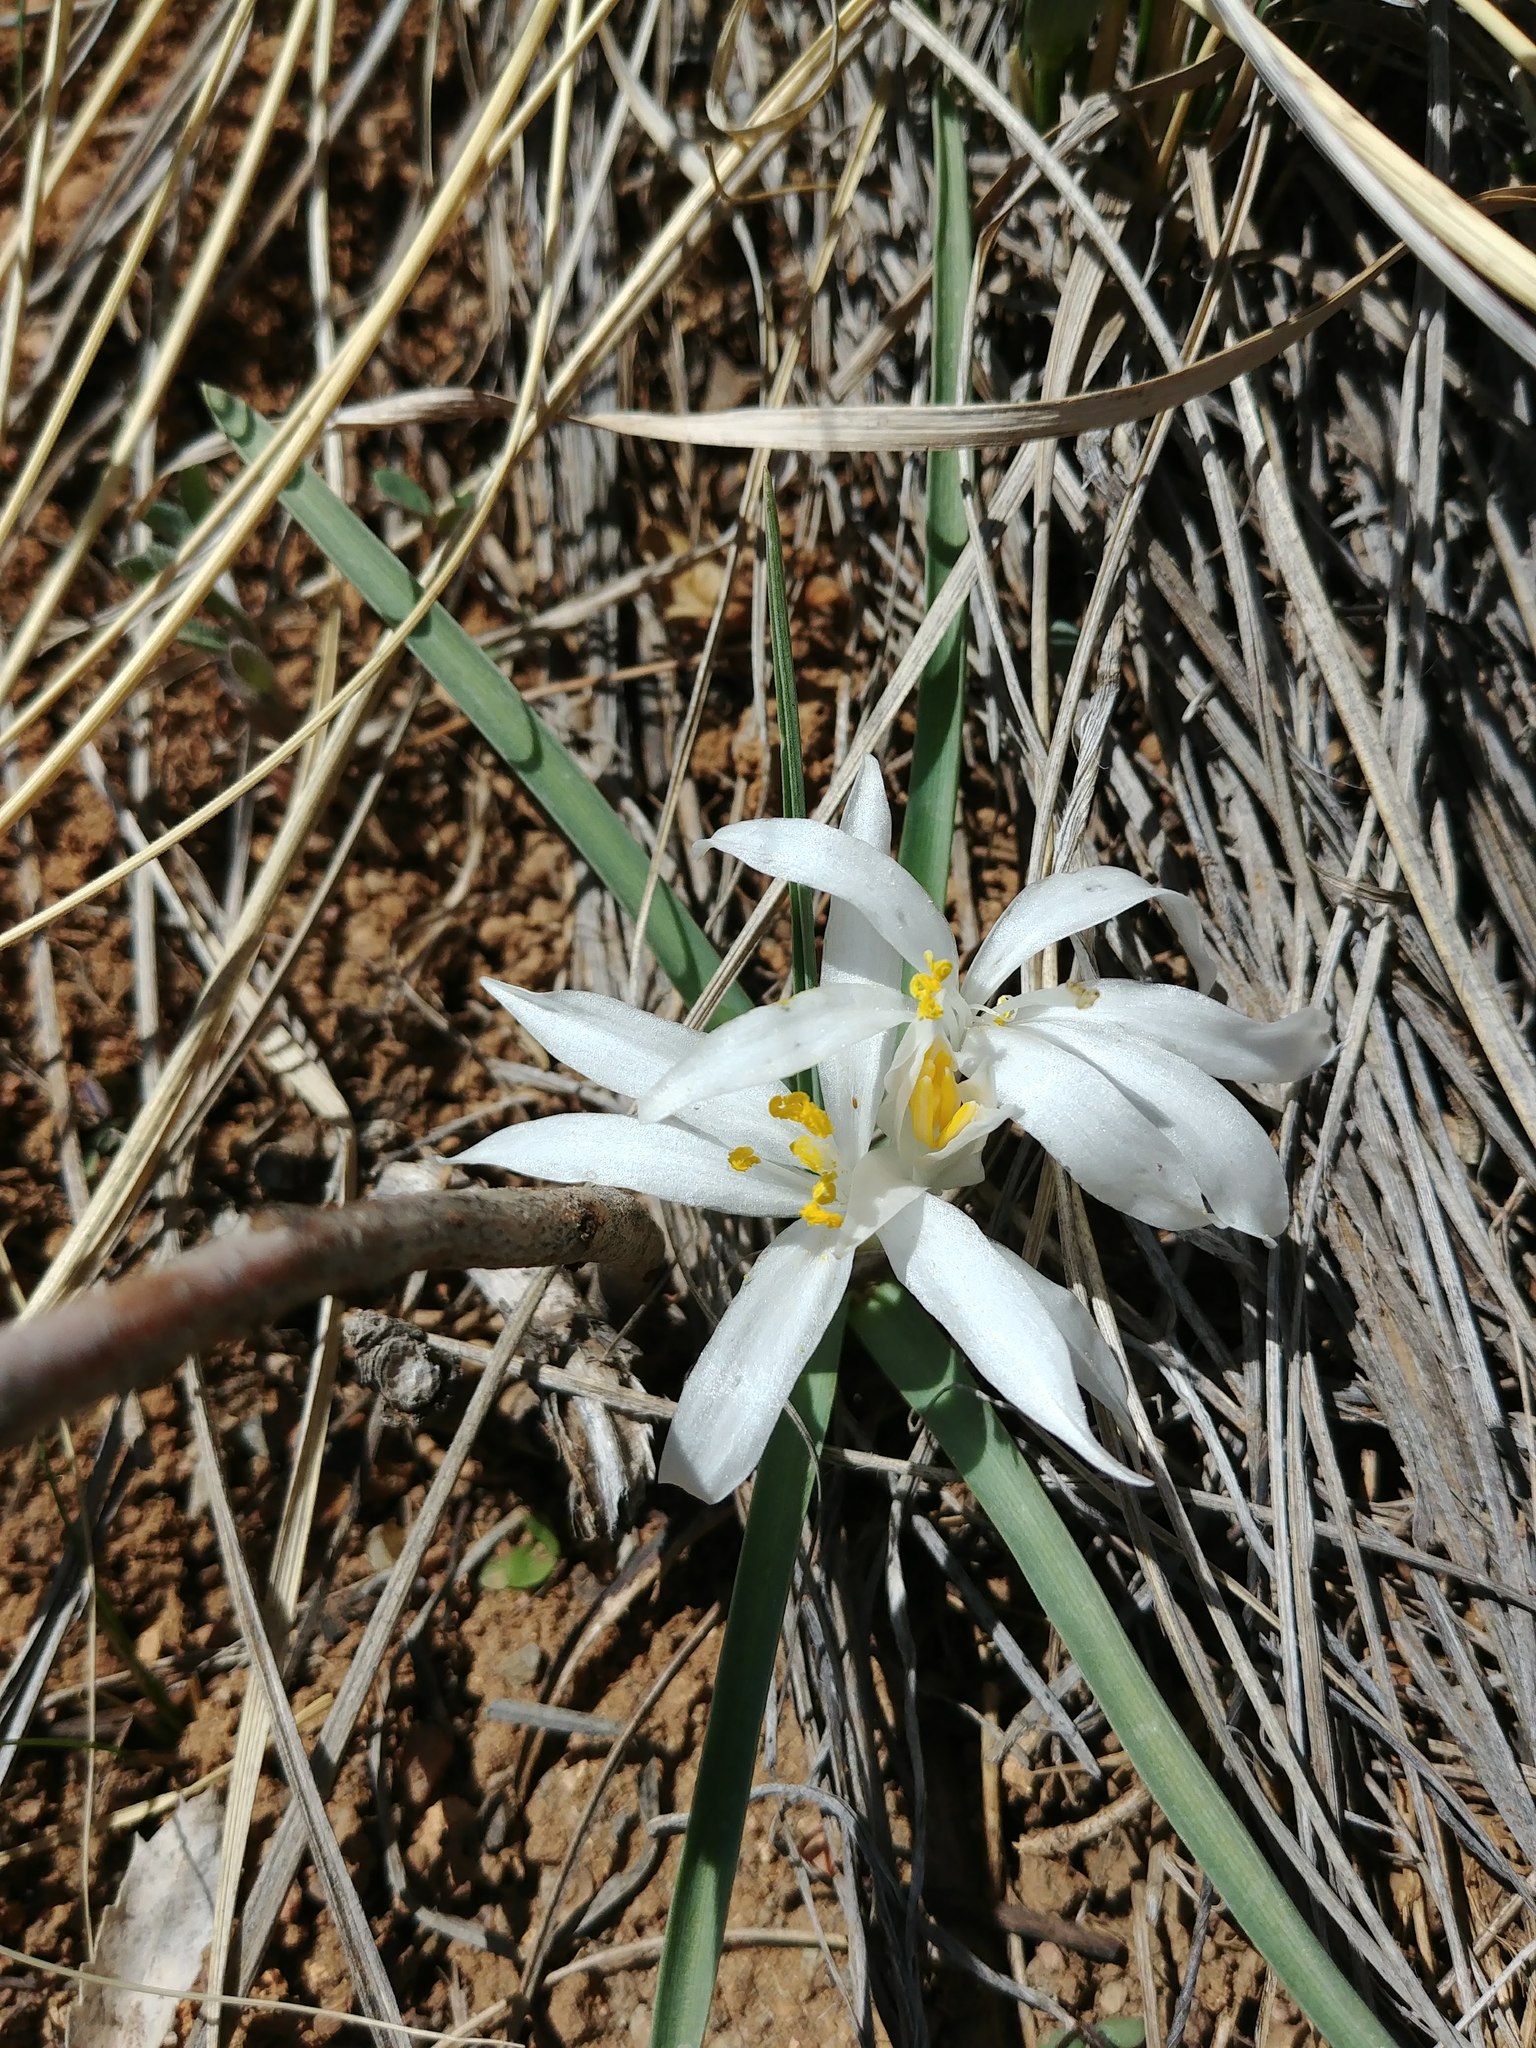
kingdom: Plantae
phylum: Tracheophyta
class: Liliopsida
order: Asparagales
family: Asparagaceae
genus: Leucocrinum
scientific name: Leucocrinum montanum
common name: Mountain-lily
